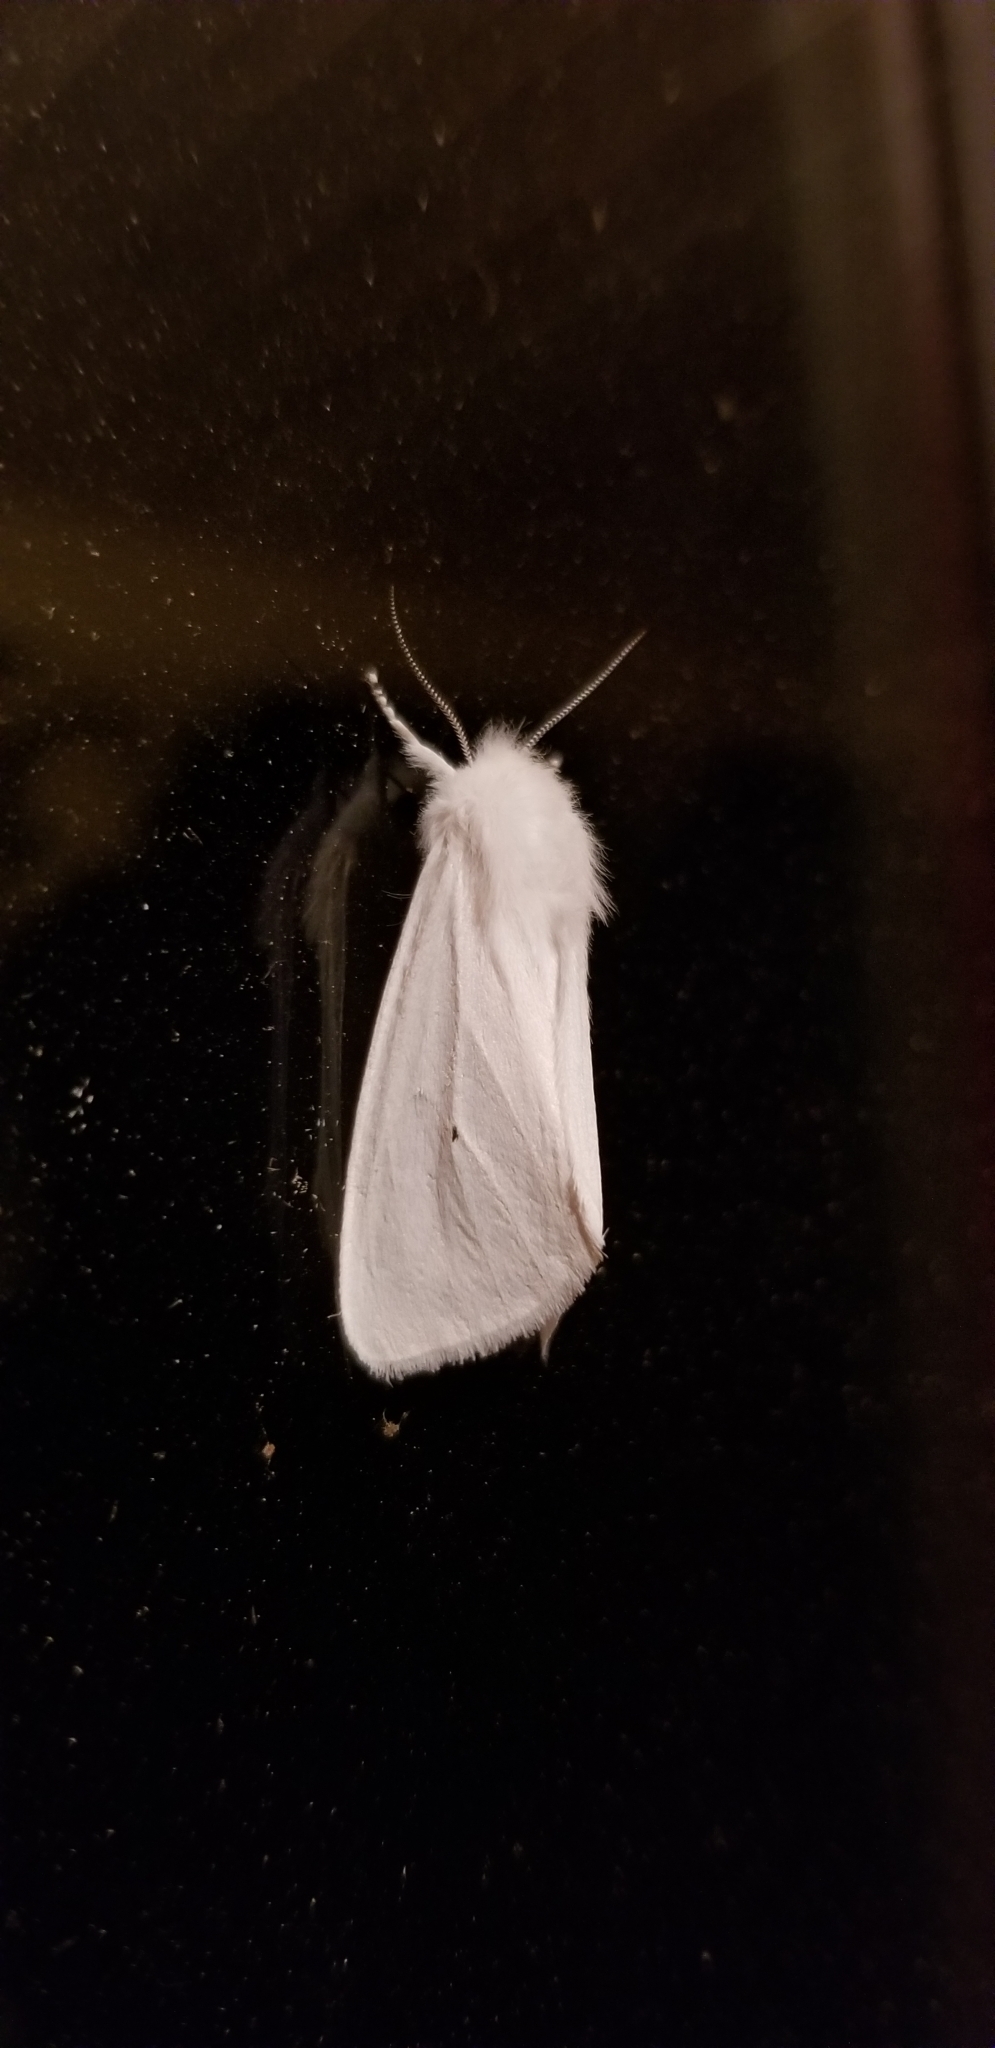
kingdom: Animalia
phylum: Arthropoda
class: Insecta
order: Lepidoptera
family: Erebidae
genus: Spilosoma
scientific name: Spilosoma virginica
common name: Virginia tiger moth
